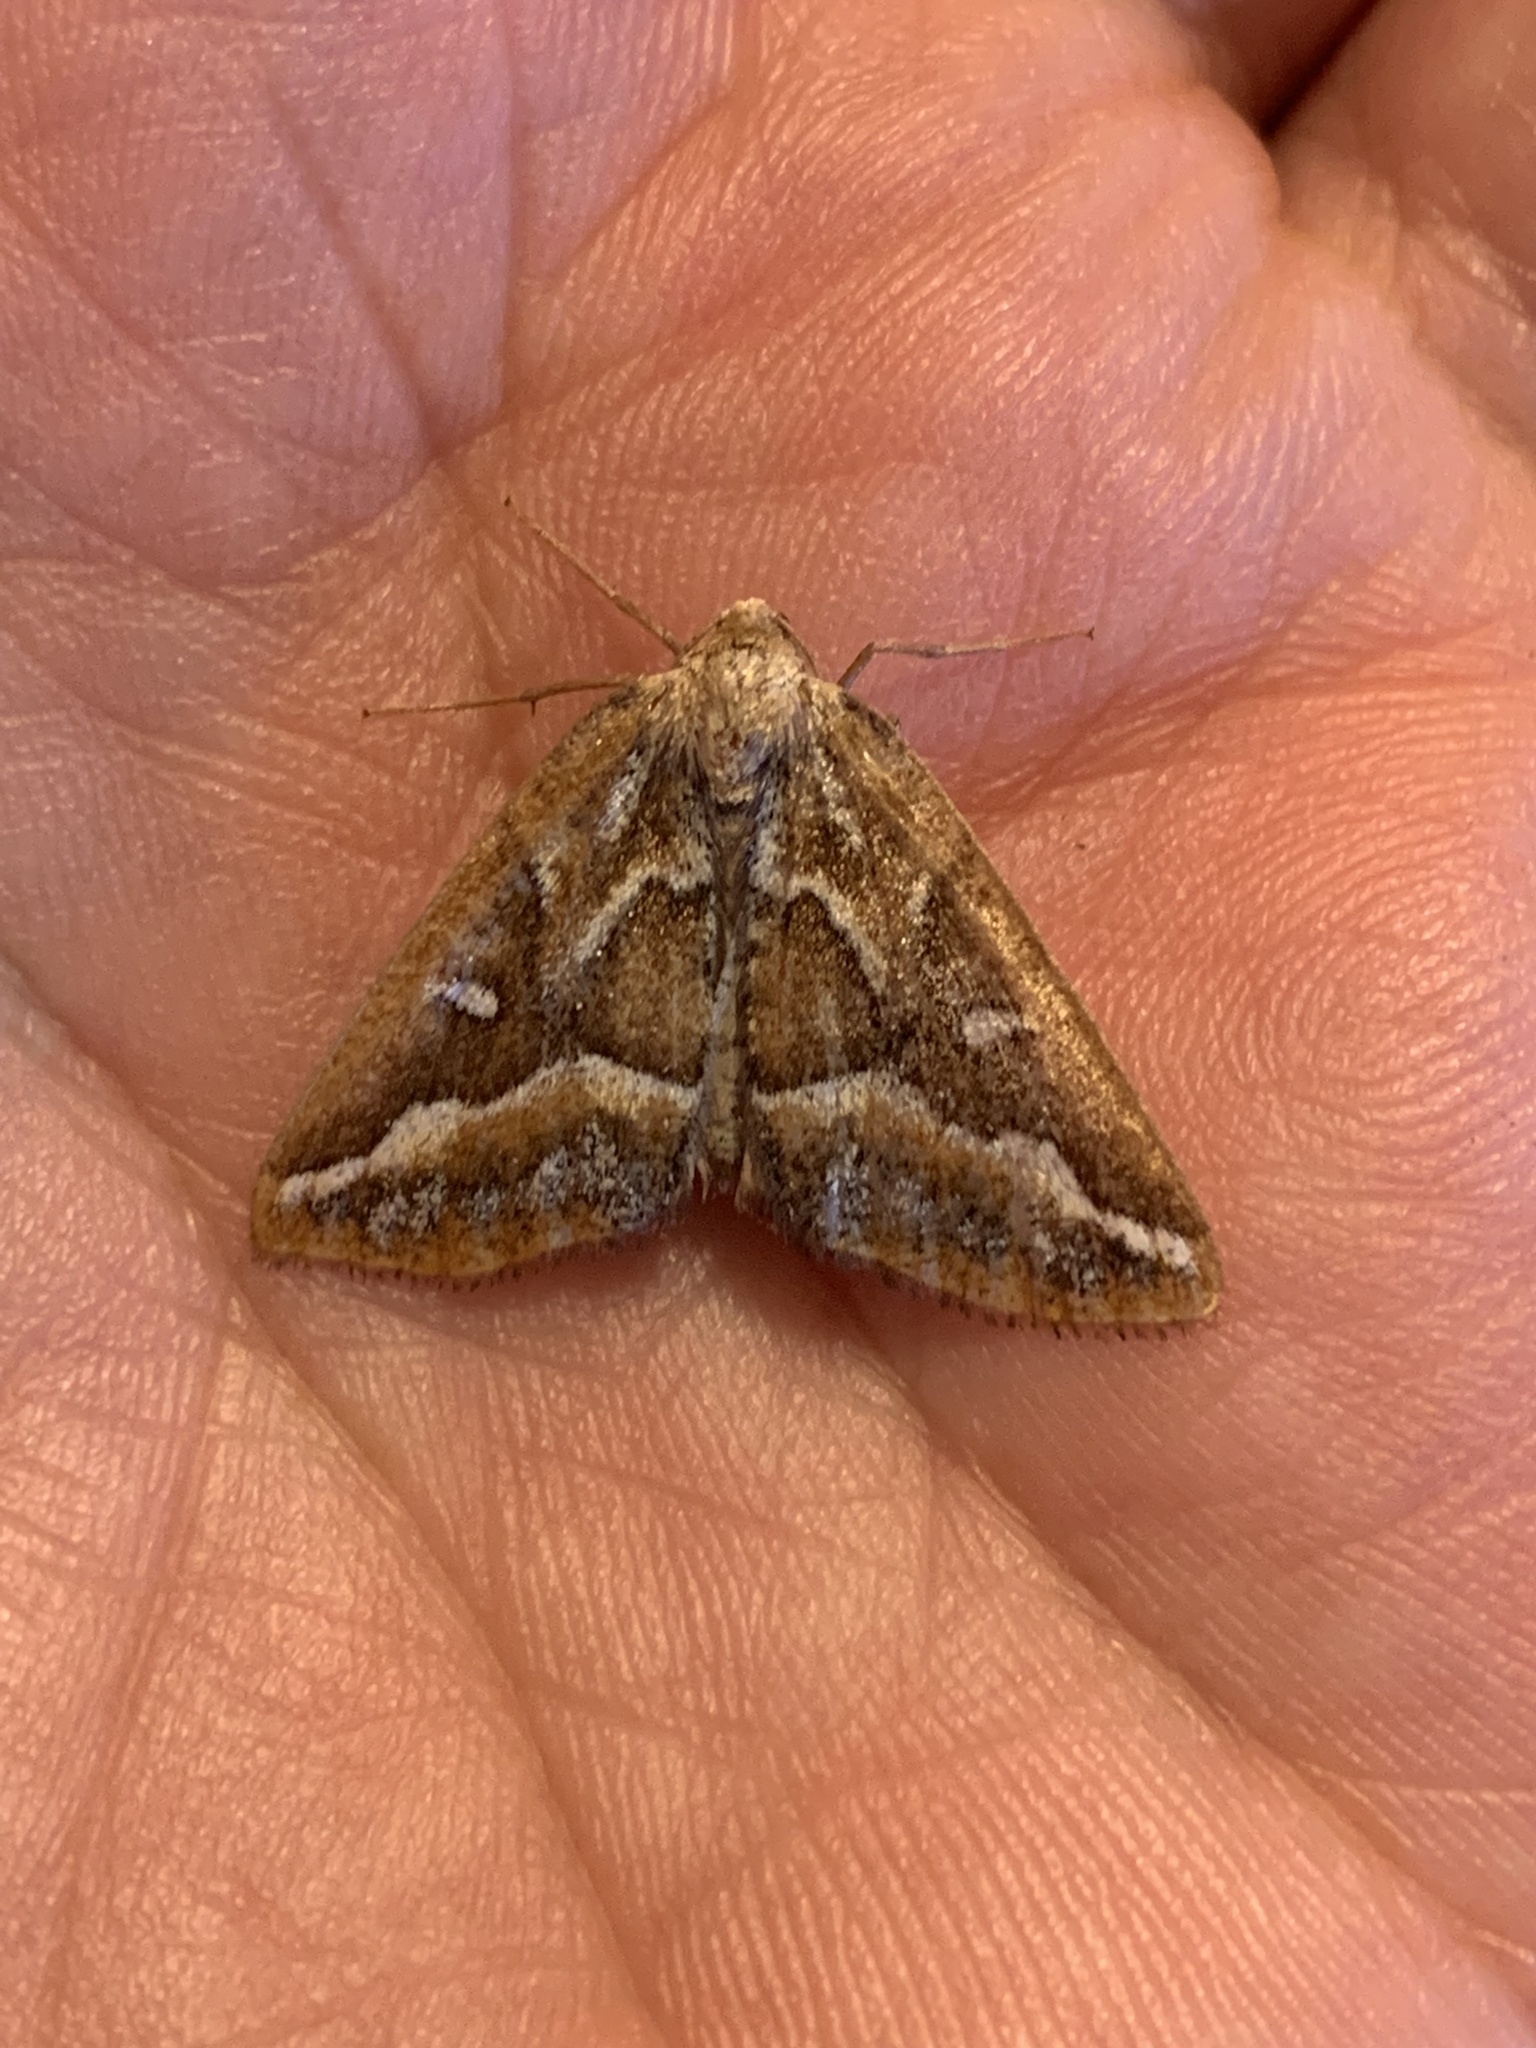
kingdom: Animalia
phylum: Arthropoda
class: Insecta
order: Lepidoptera
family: Geometridae
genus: Caripeta
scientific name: Caripeta angustiorata
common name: Brown pine looper
